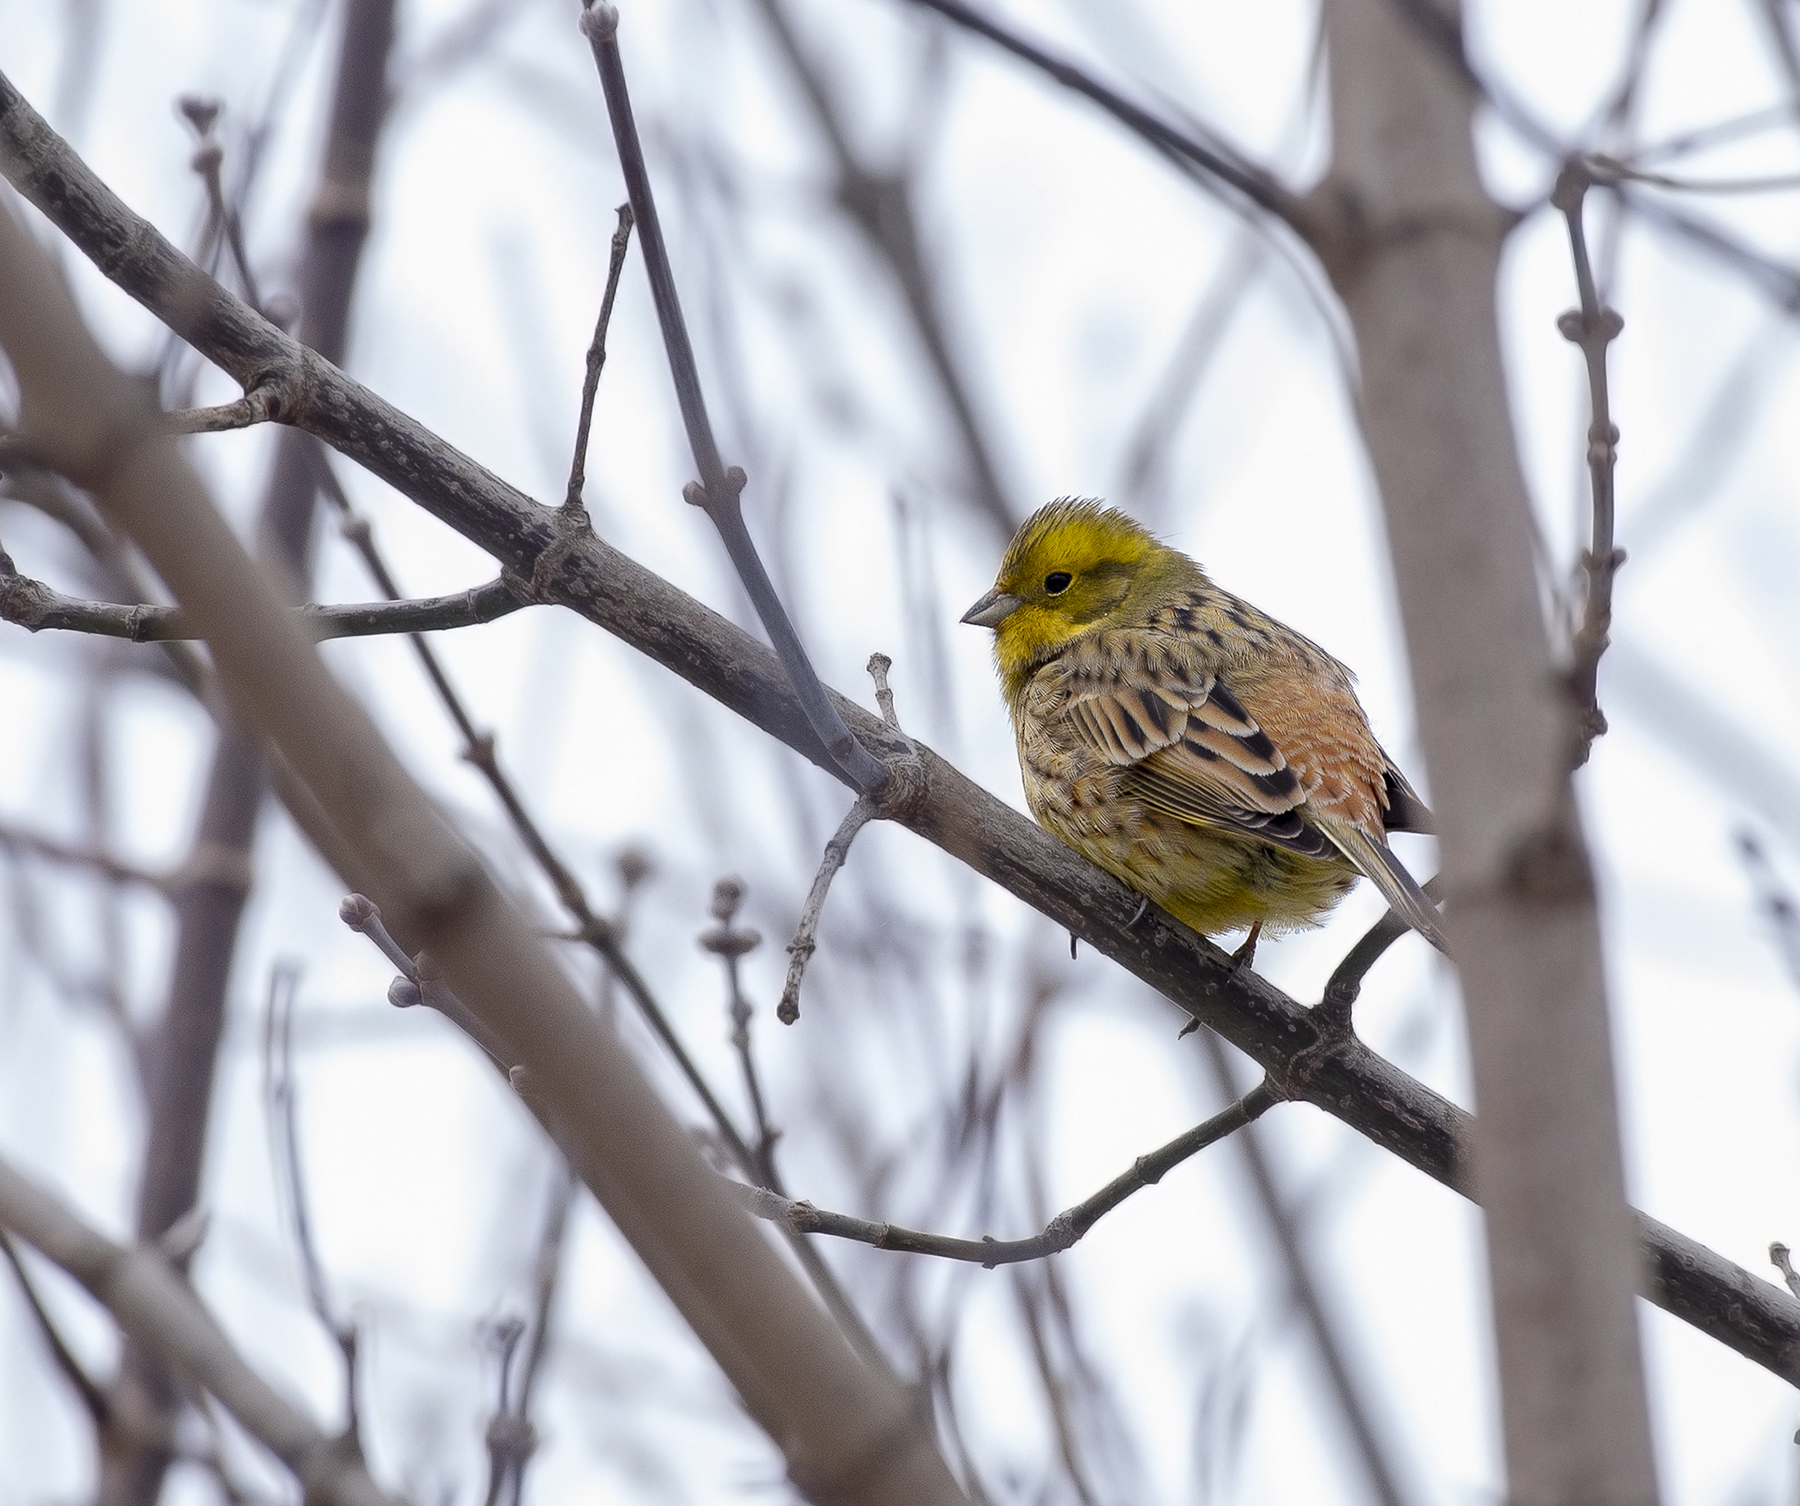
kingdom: Animalia
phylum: Chordata
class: Aves
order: Passeriformes
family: Emberizidae
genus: Emberiza
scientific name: Emberiza citrinella
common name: Yellowhammer
